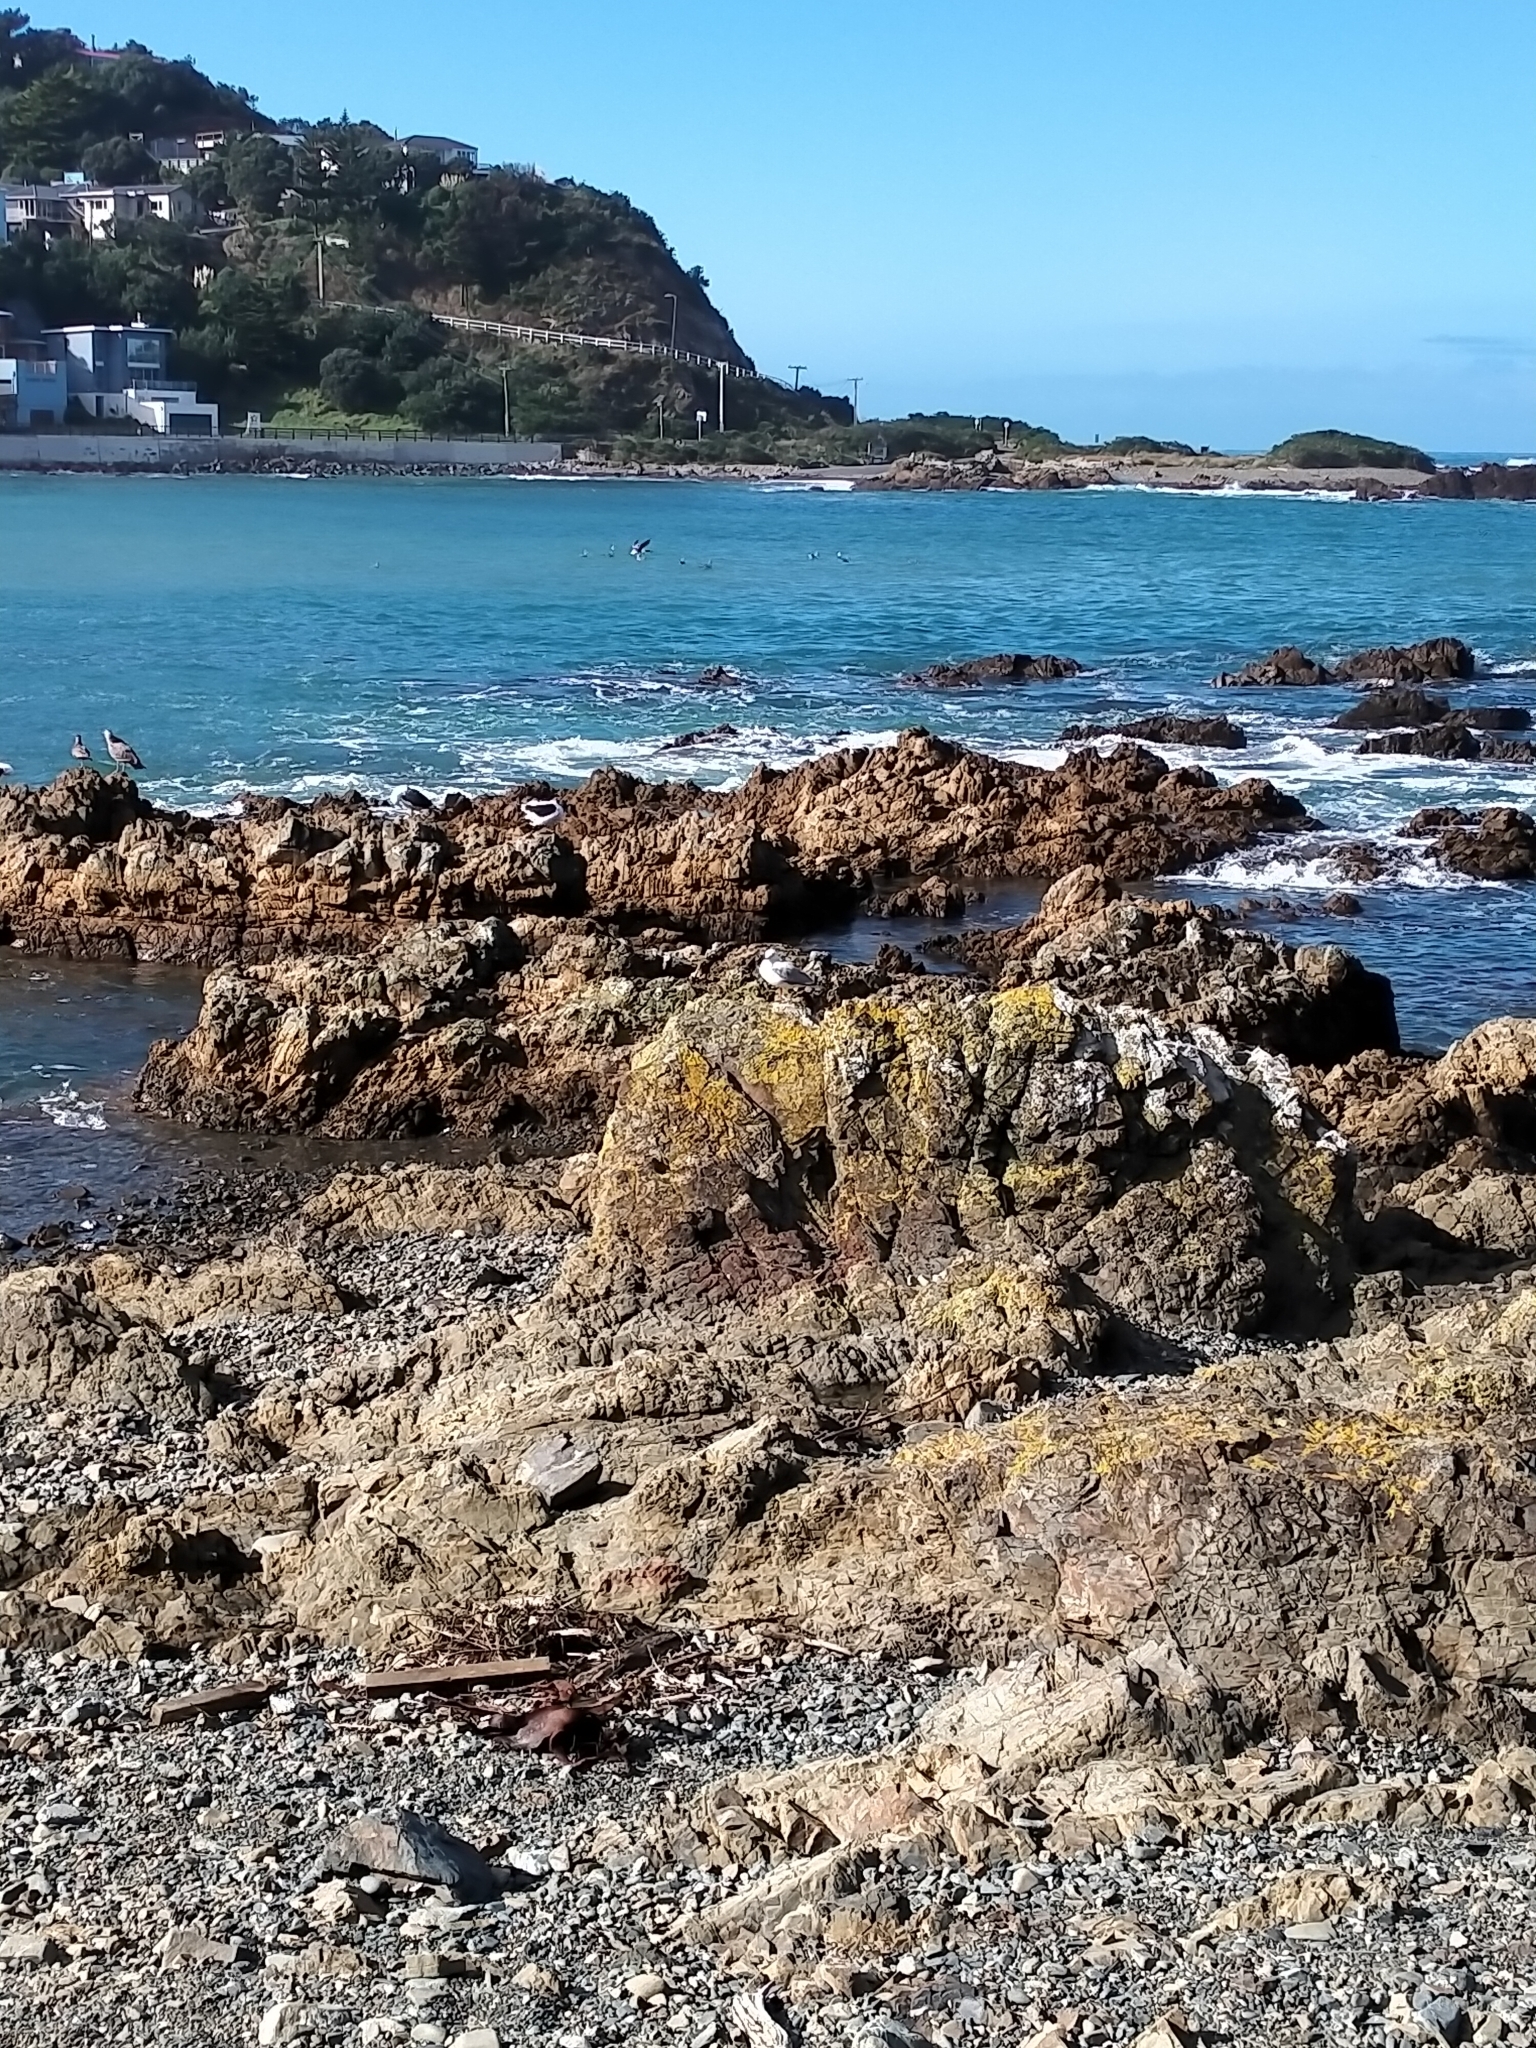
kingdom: Animalia
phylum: Chordata
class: Aves
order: Charadriiformes
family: Laridae
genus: Chroicocephalus
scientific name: Chroicocephalus novaehollandiae
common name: Silver gull
